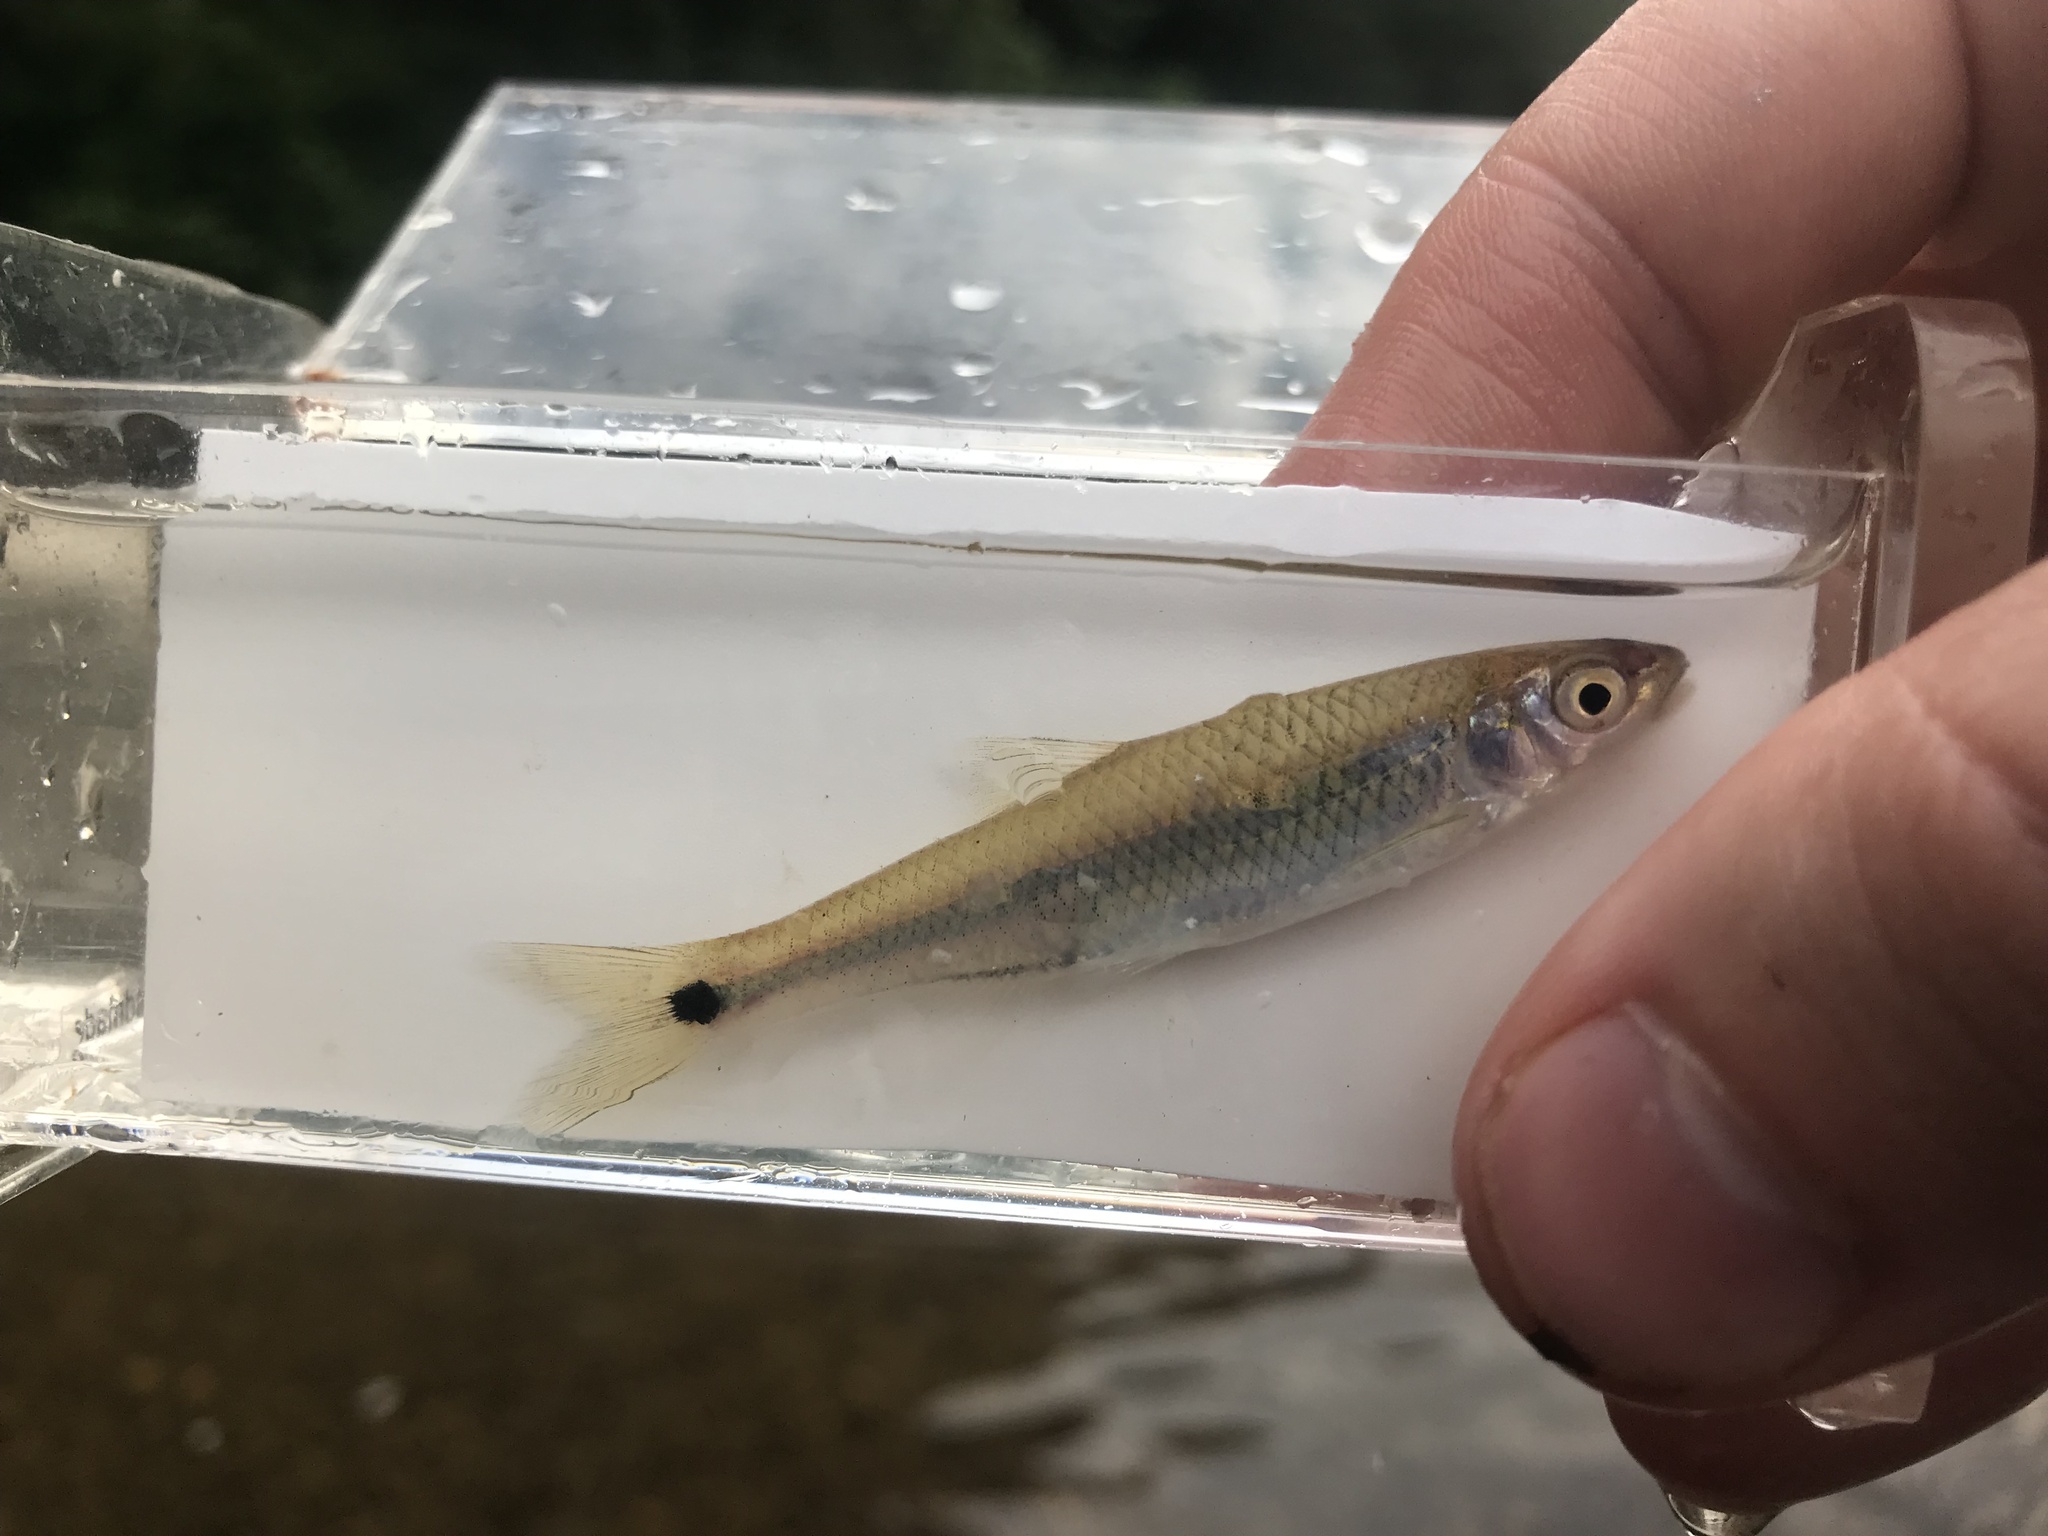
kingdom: Animalia
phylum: Chordata
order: Cypriniformes
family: Cyprinidae
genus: Cyprinella
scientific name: Cyprinella eurystoma
